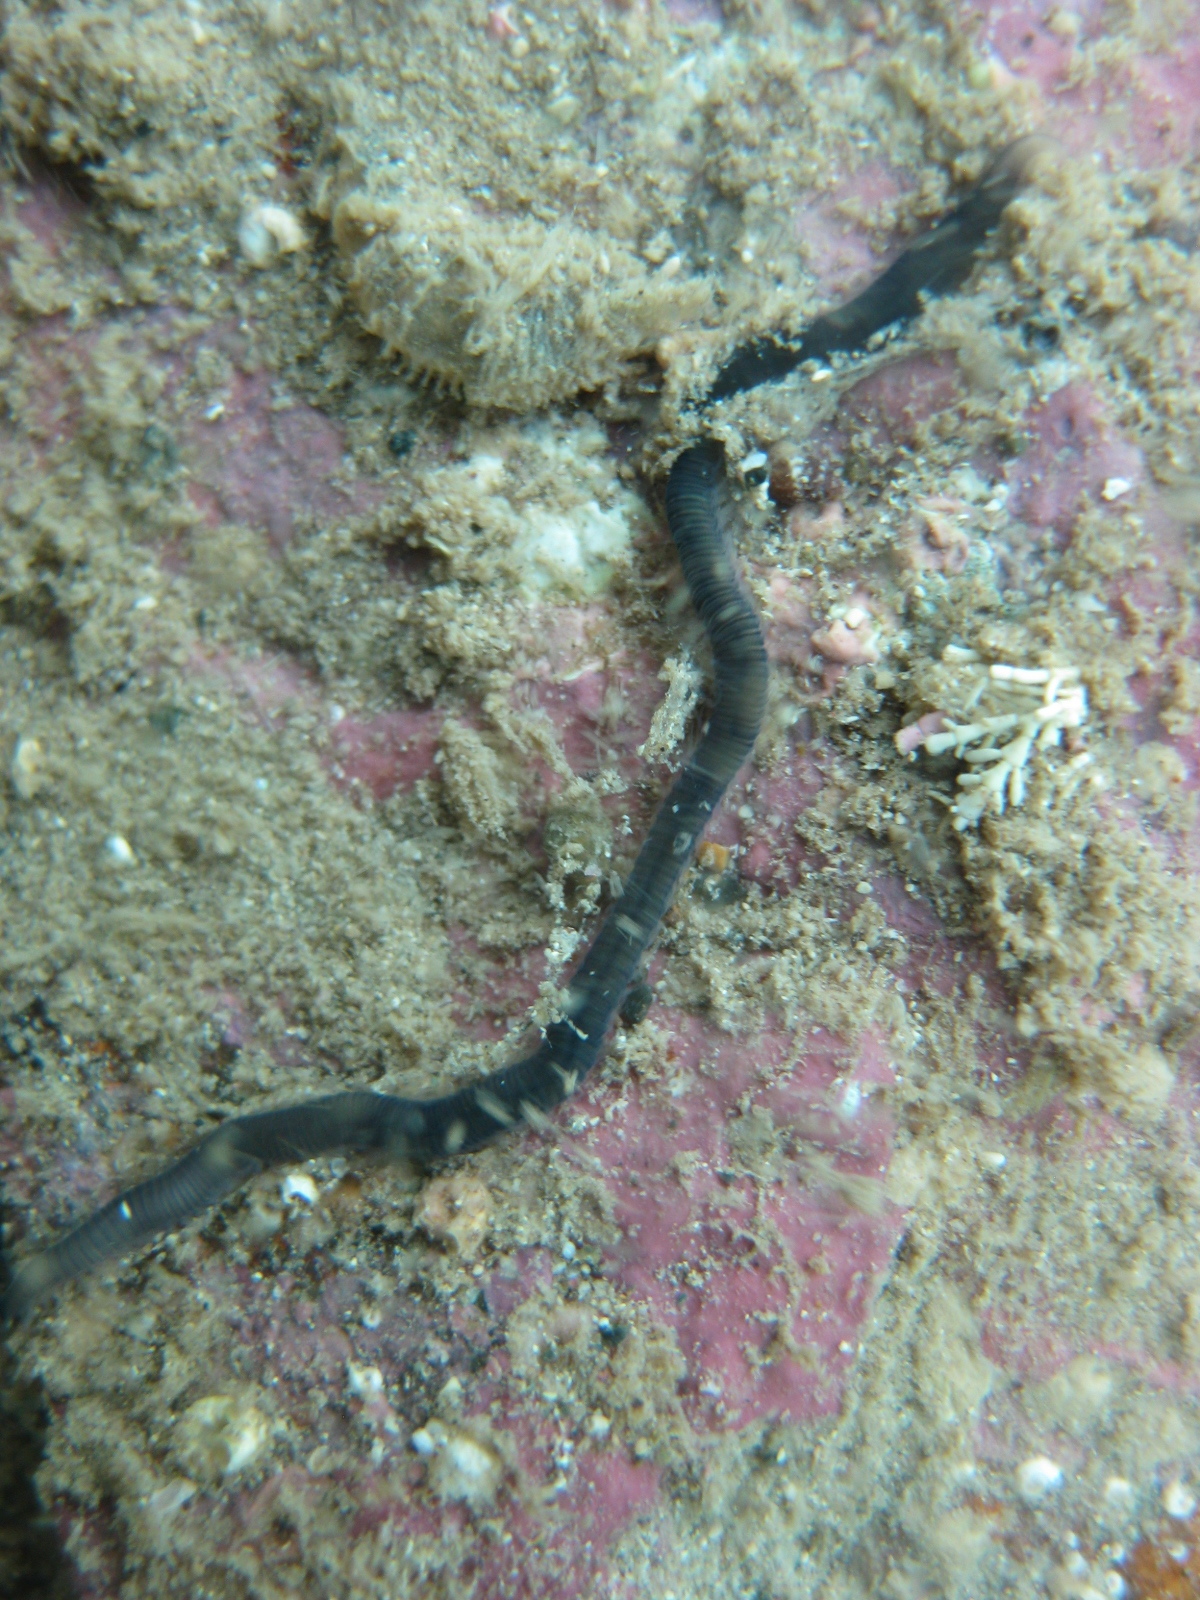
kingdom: Animalia
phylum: Annelida
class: Polychaeta
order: Phyllodocida
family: Syllidae
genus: Odontosyllis
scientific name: Odontosyllis polycera
